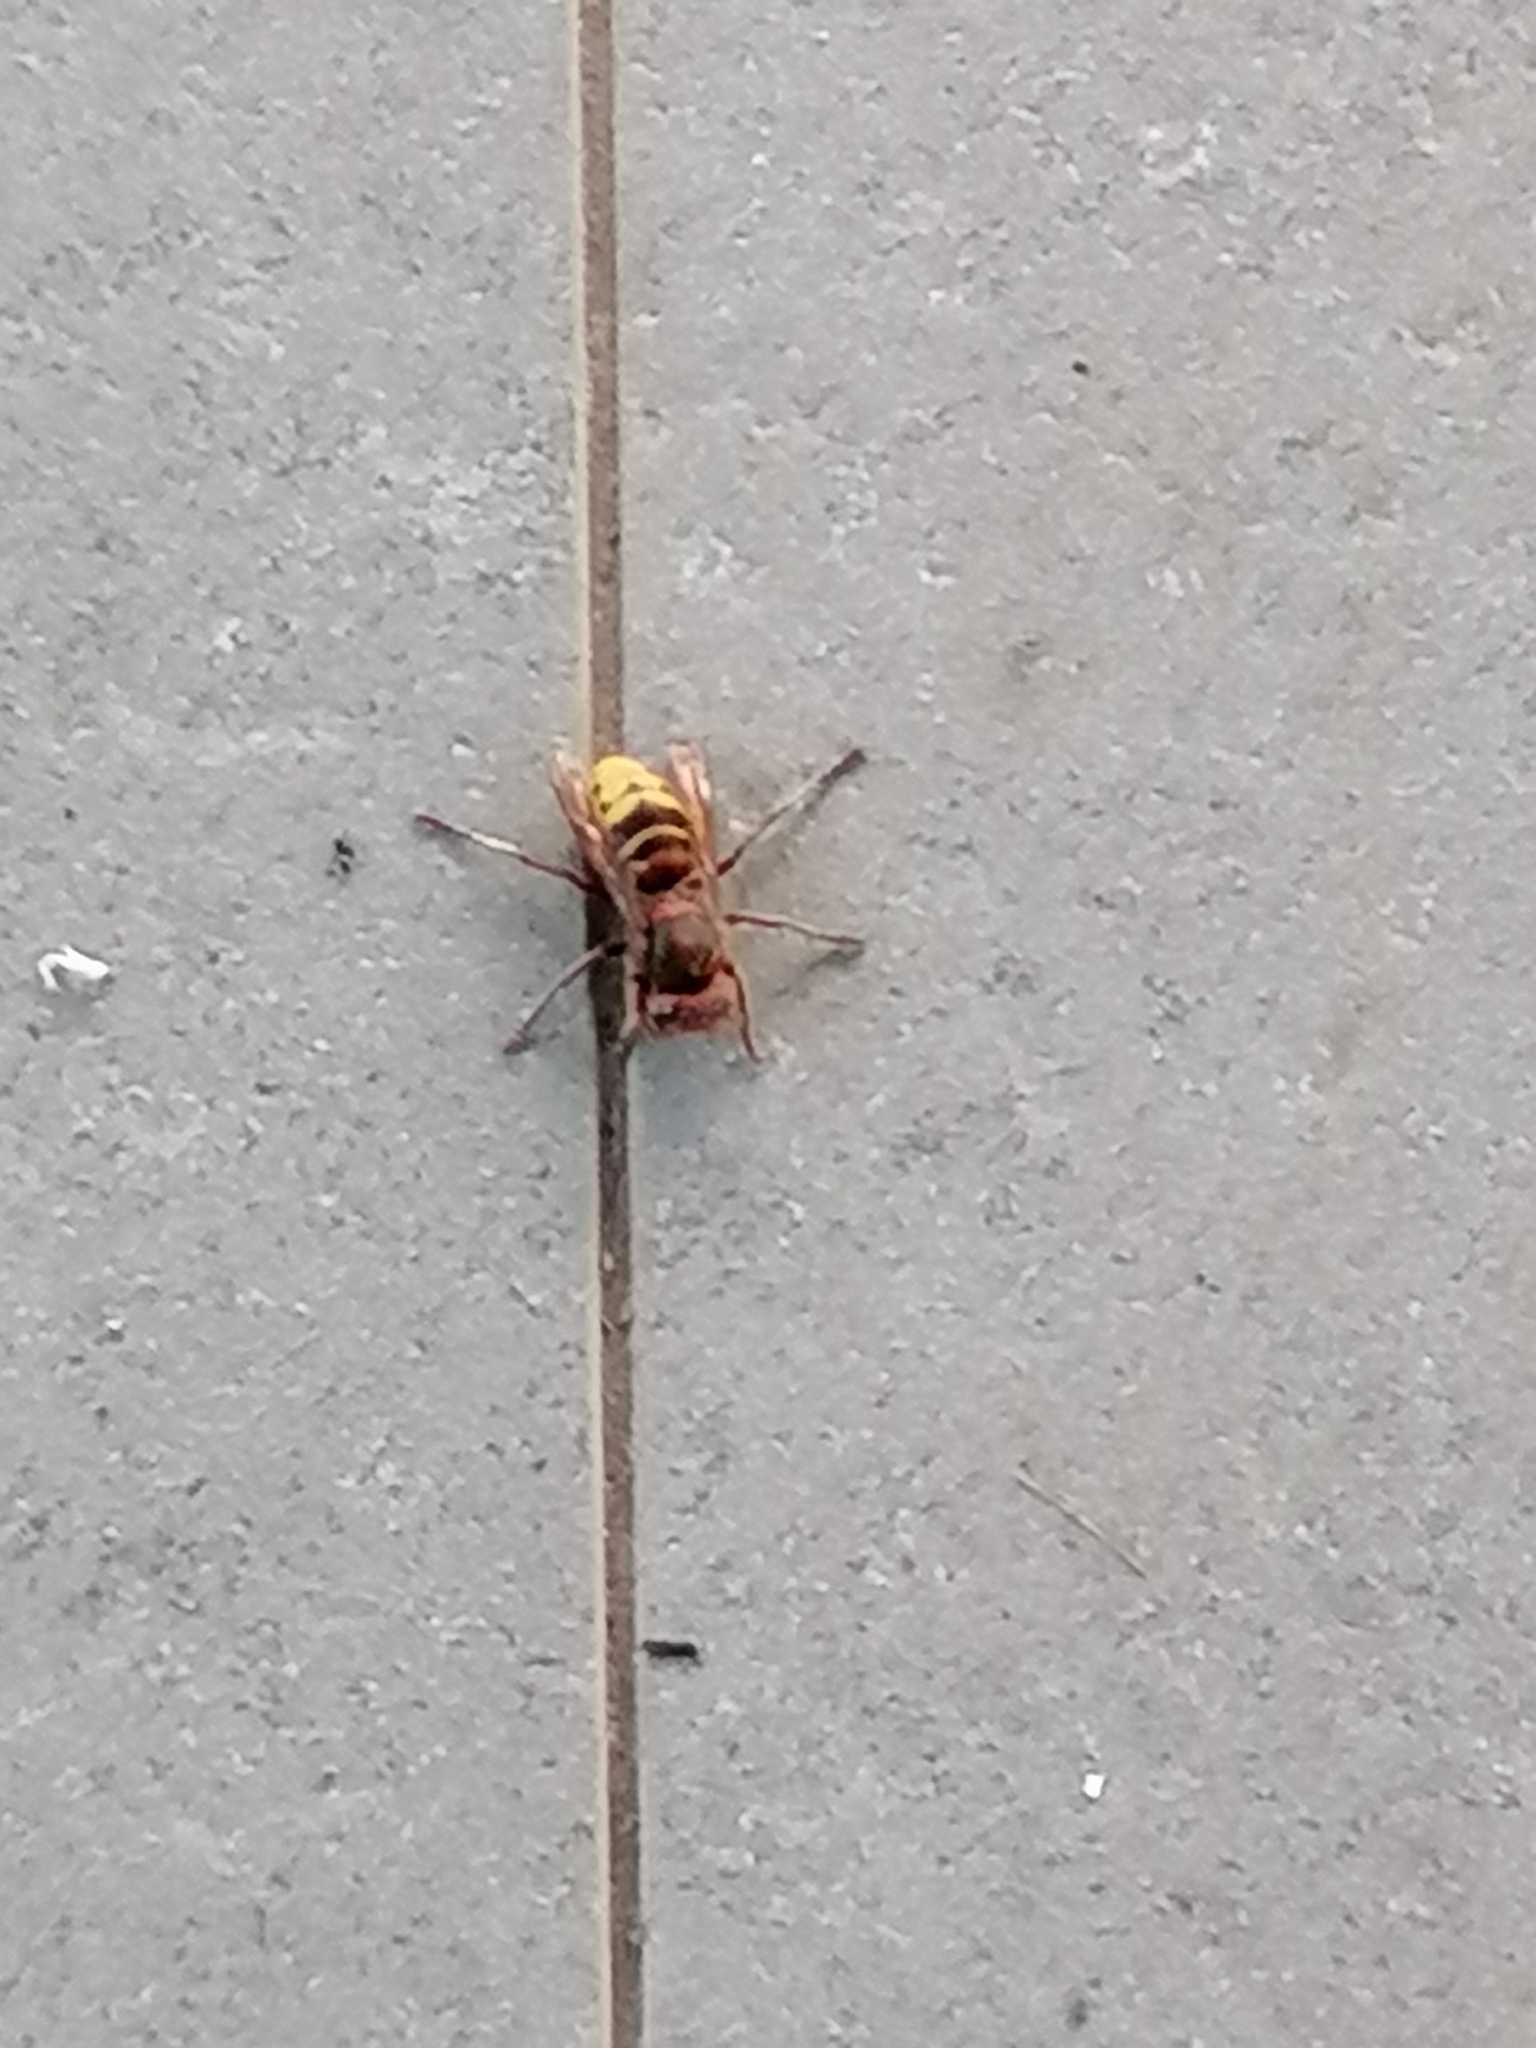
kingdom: Animalia
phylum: Arthropoda
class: Insecta
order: Hymenoptera
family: Vespidae
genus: Vespa
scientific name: Vespa crabro
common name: Hornet
